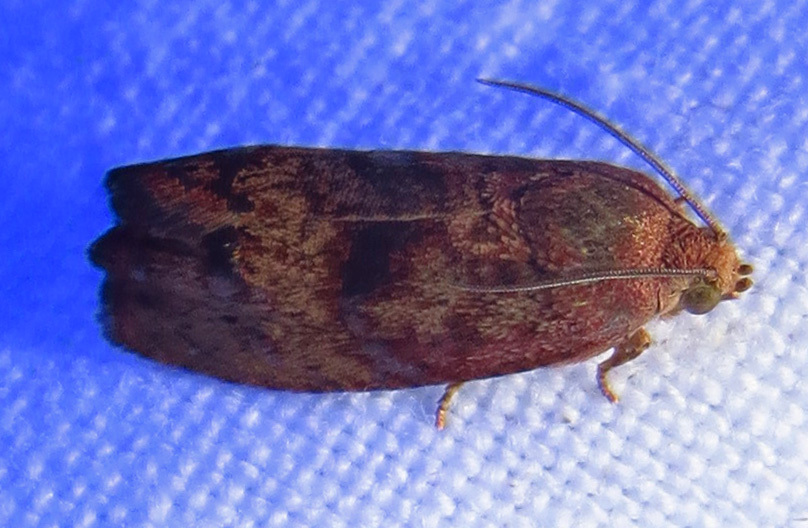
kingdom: Animalia
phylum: Arthropoda
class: Insecta
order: Lepidoptera
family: Tortricidae
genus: Cydia
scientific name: Cydia latiferreana
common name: Filbertworm moth
